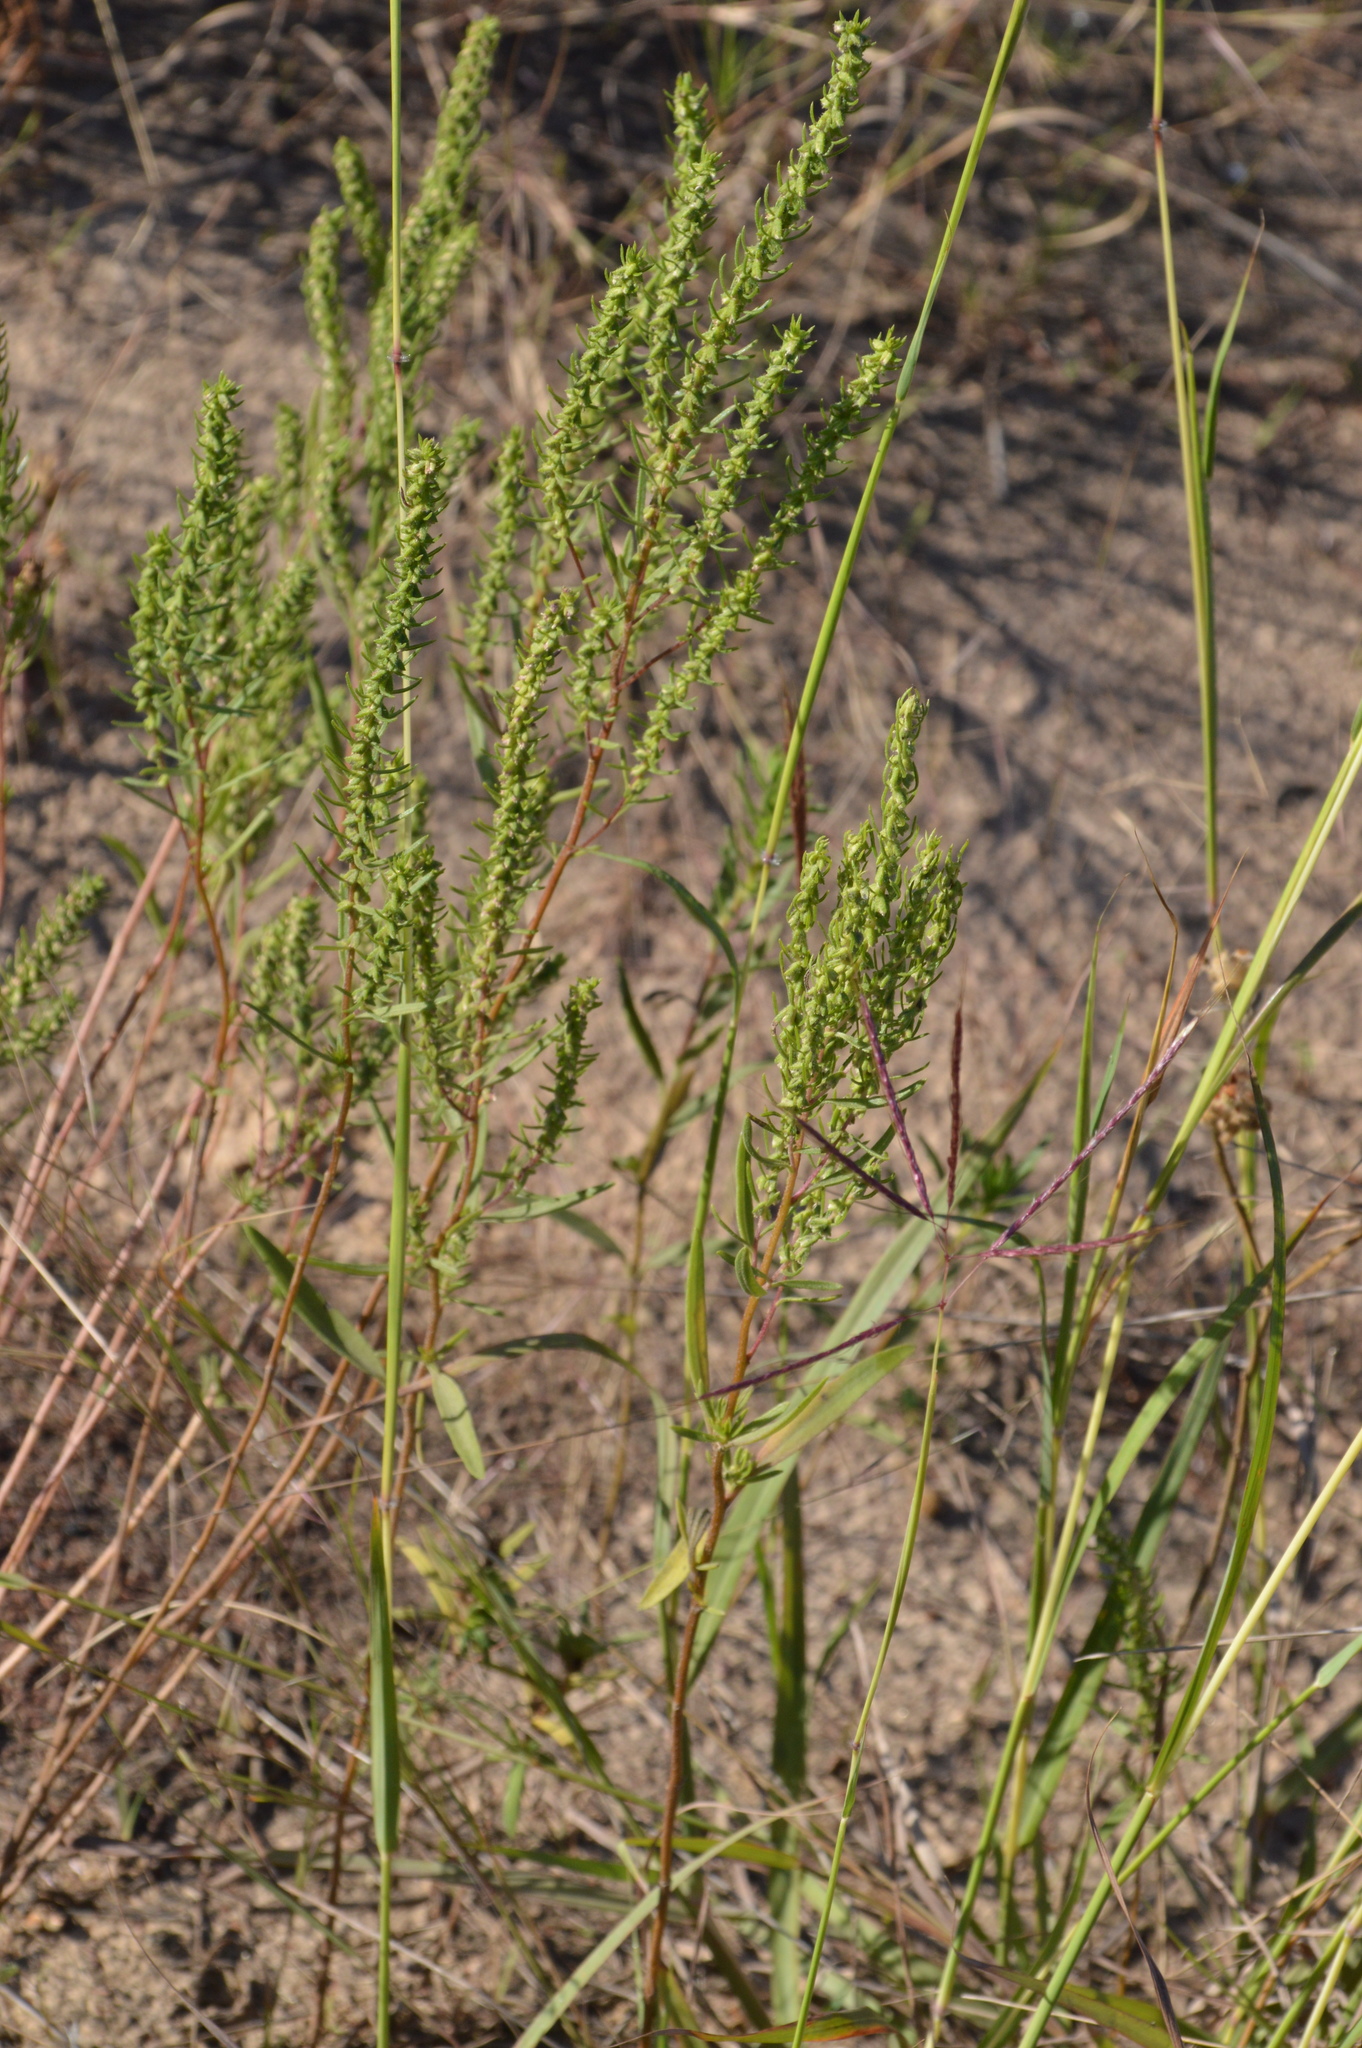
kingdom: Plantae
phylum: Tracheophyta
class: Magnoliopsida
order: Asterales
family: Asteraceae
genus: Iva
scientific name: Iva asperifolia
